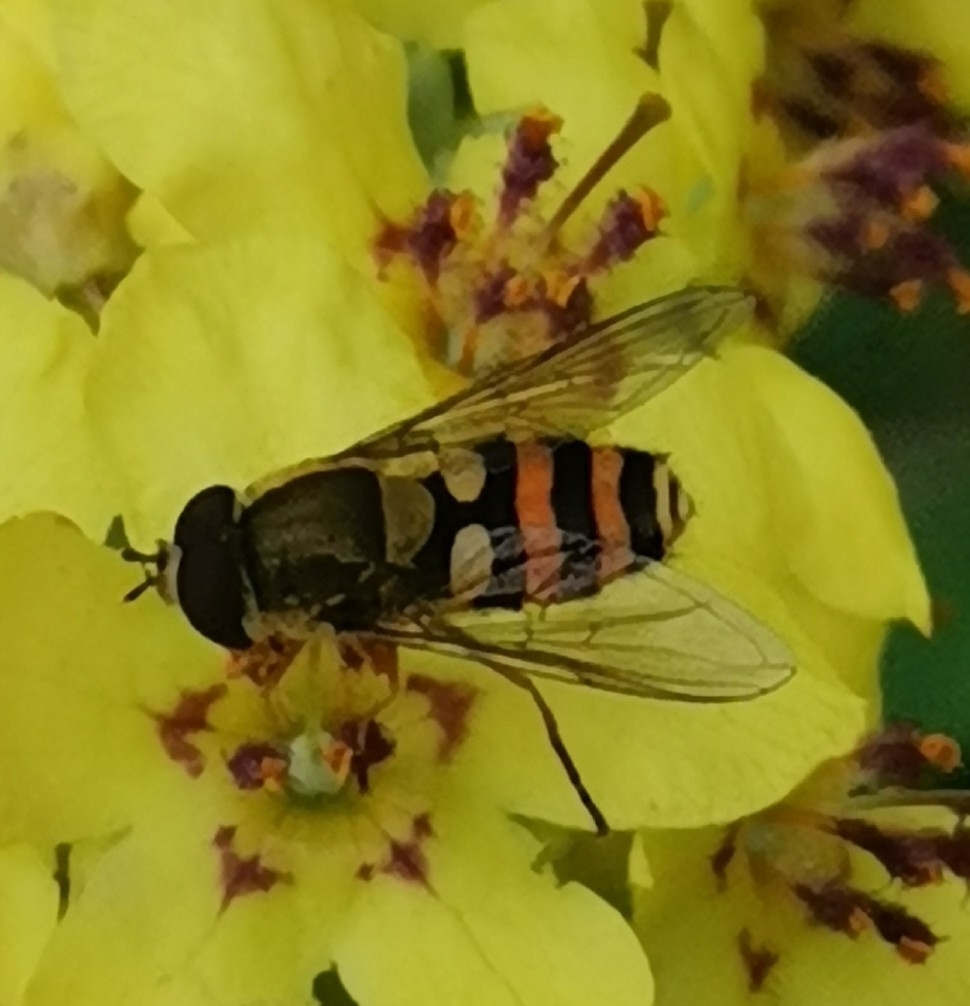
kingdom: Animalia
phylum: Arthropoda
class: Insecta
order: Diptera
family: Syrphidae
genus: Syrphus
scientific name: Syrphus
